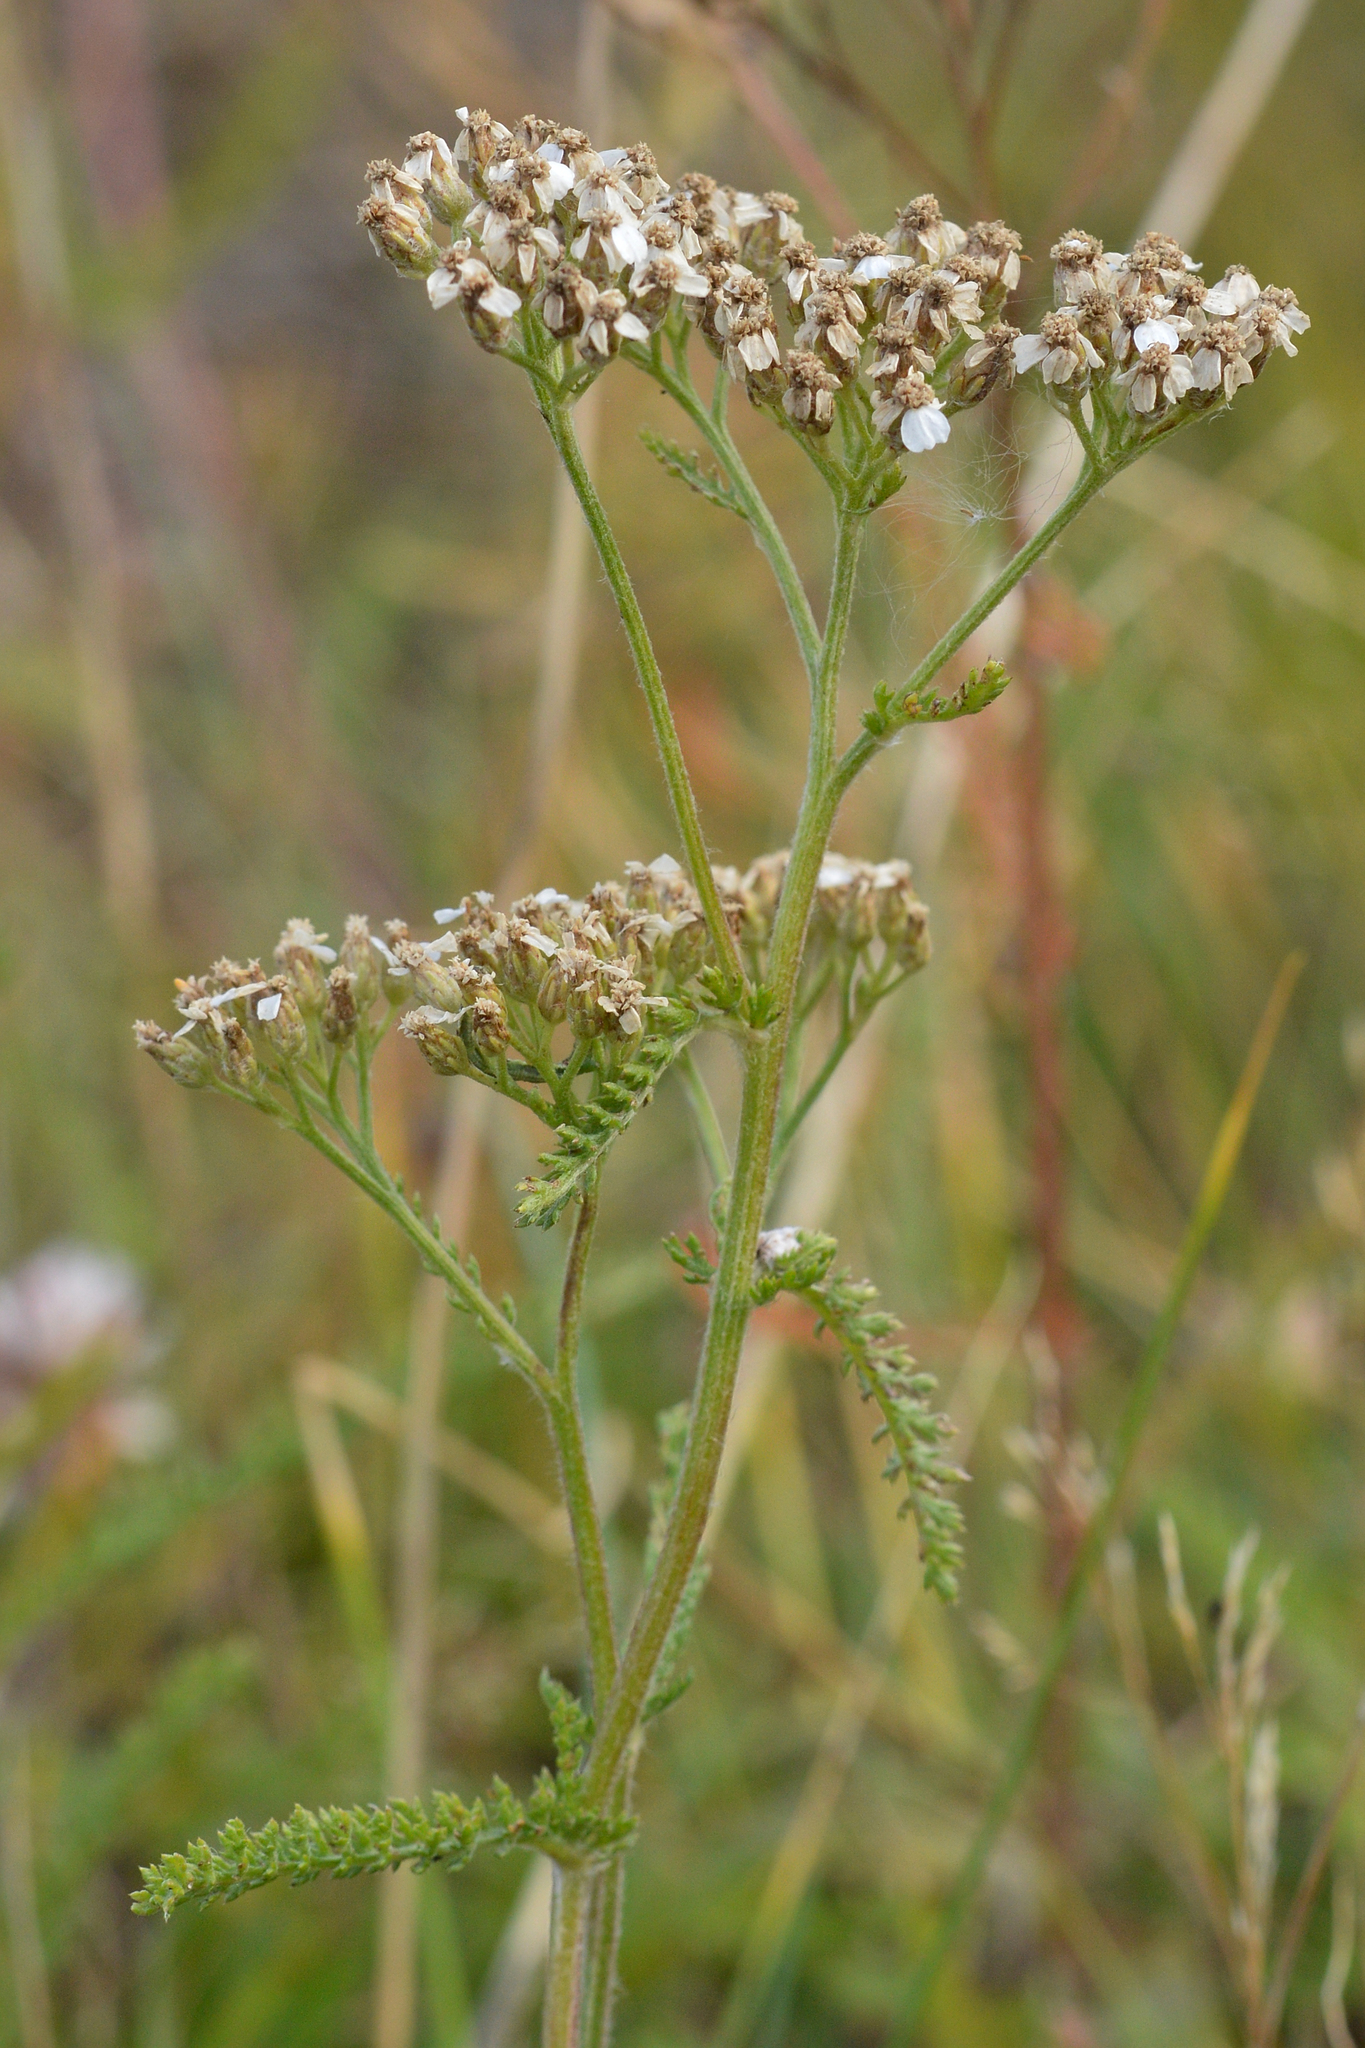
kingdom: Plantae
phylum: Tracheophyta
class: Magnoliopsida
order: Asterales
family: Asteraceae
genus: Achillea
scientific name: Achillea millefolium
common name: Yarrow
